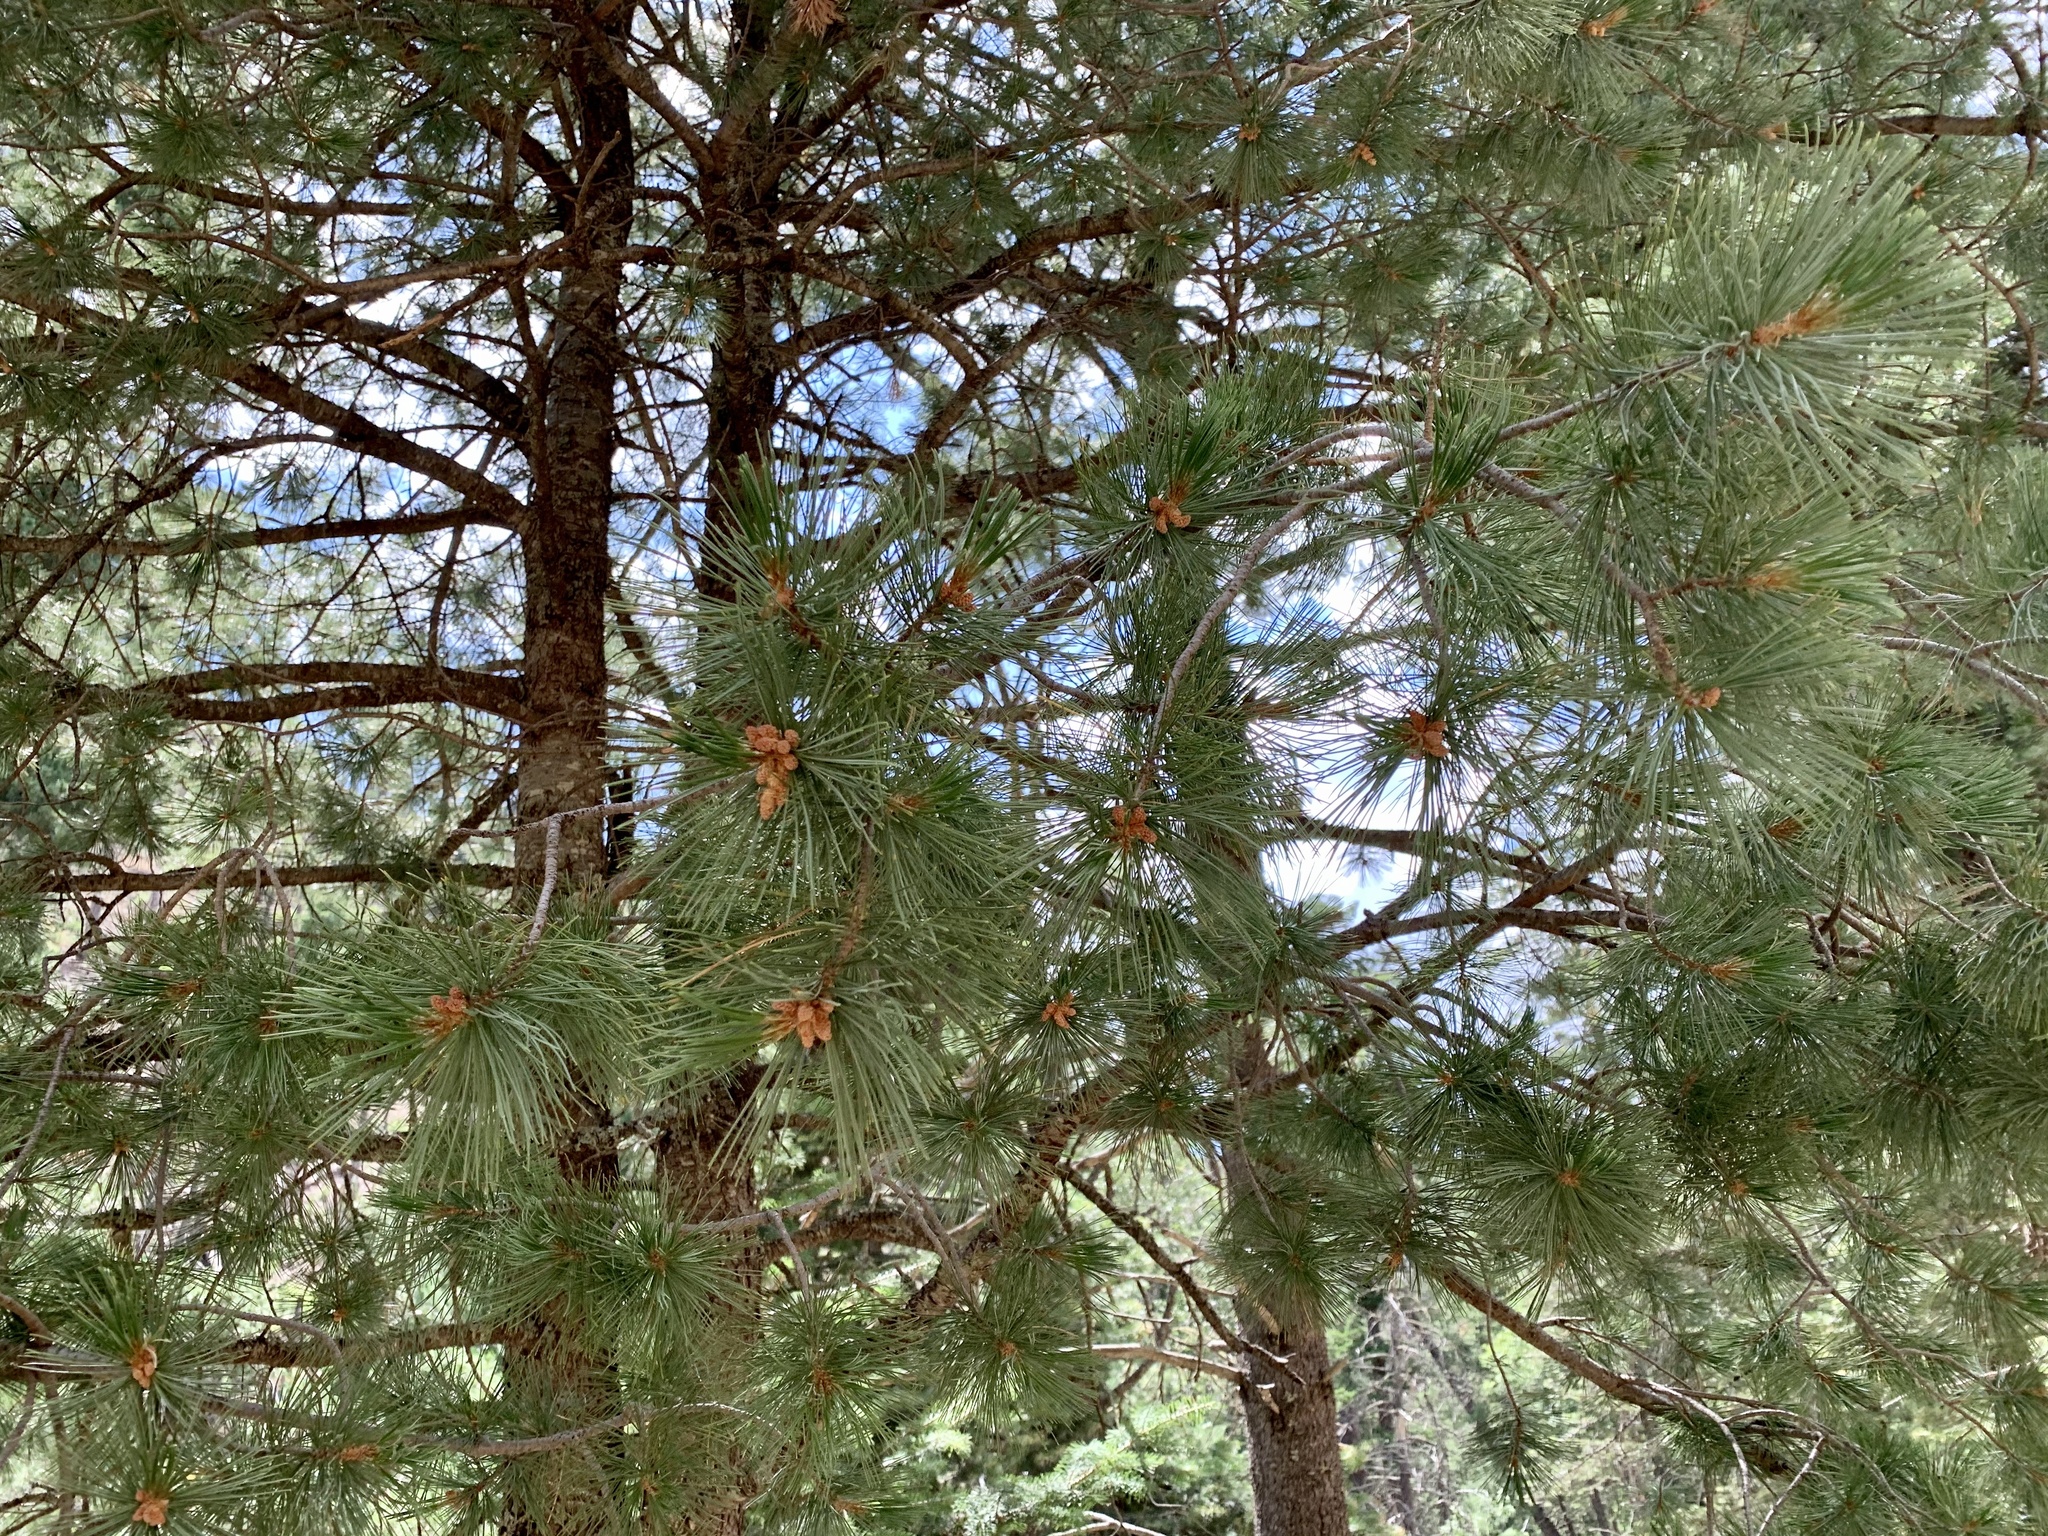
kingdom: Plantae
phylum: Tracheophyta
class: Pinopsida
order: Pinales
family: Pinaceae
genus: Pinus
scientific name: Pinus strobiformis
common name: Southwestern white pine
